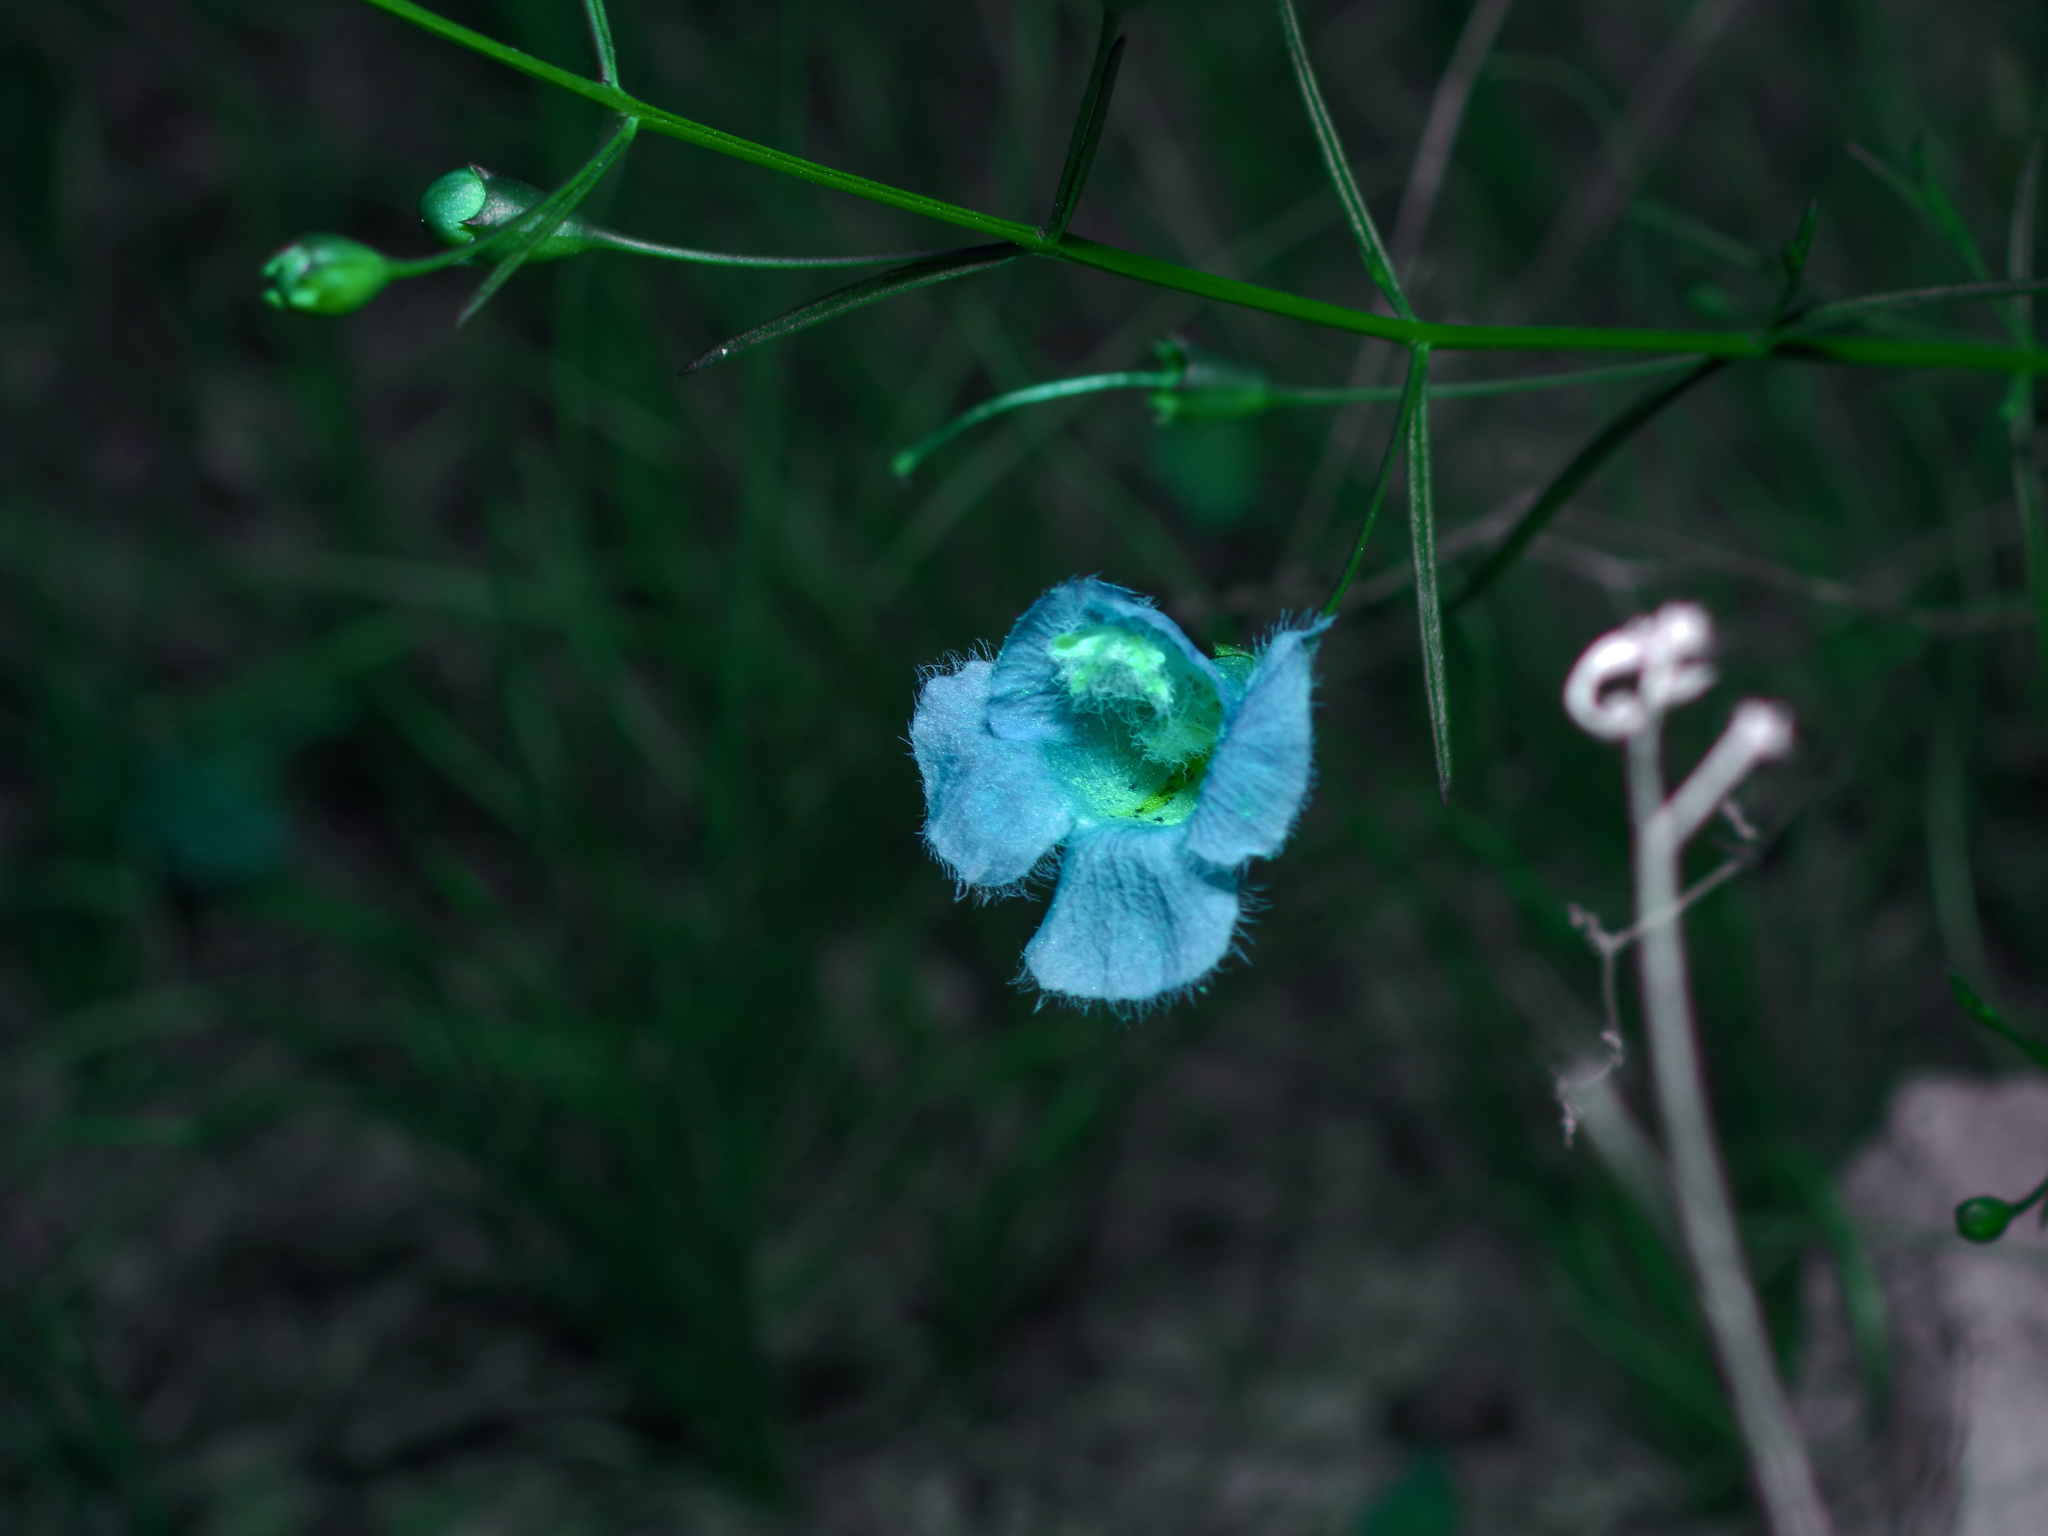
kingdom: Plantae
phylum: Tracheophyta
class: Magnoliopsida
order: Lamiales
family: Orobanchaceae
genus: Agalinis
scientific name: Agalinis edwardsiana
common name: Plateau-gerardia
